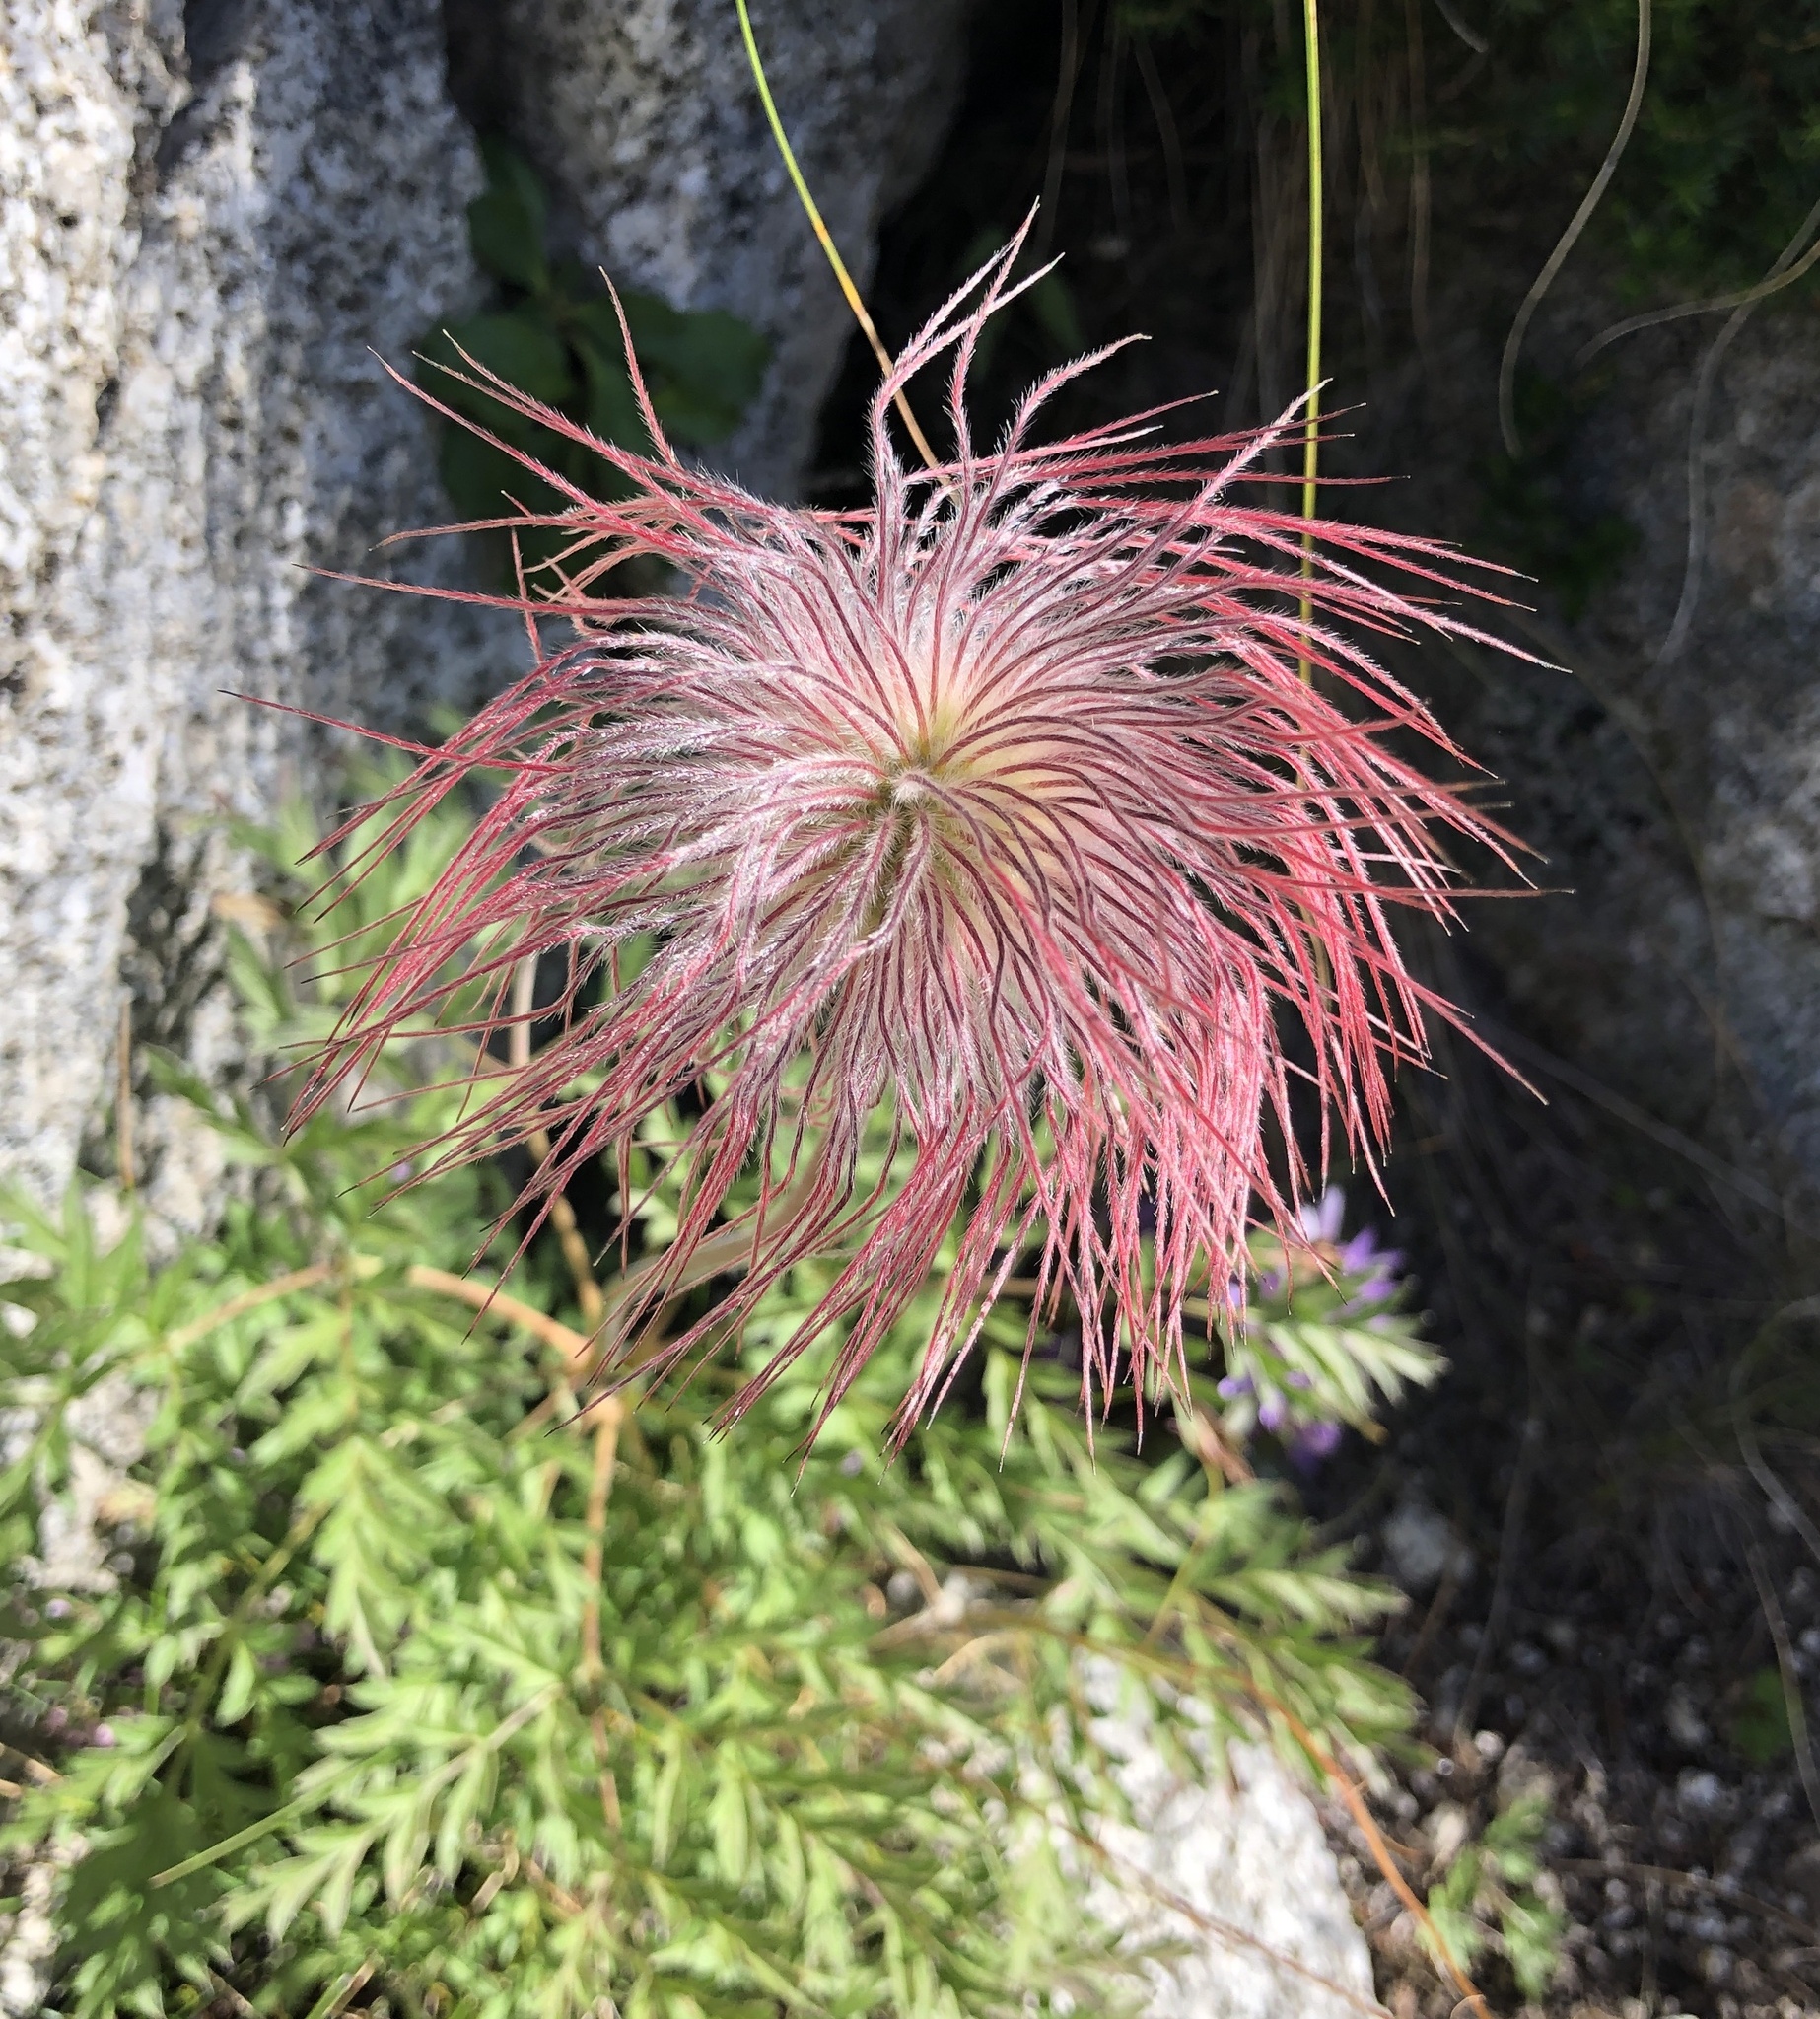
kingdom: Plantae
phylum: Tracheophyta
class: Magnoliopsida
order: Ranunculales
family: Ranunculaceae
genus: Pulsatilla
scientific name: Pulsatilla alpina
